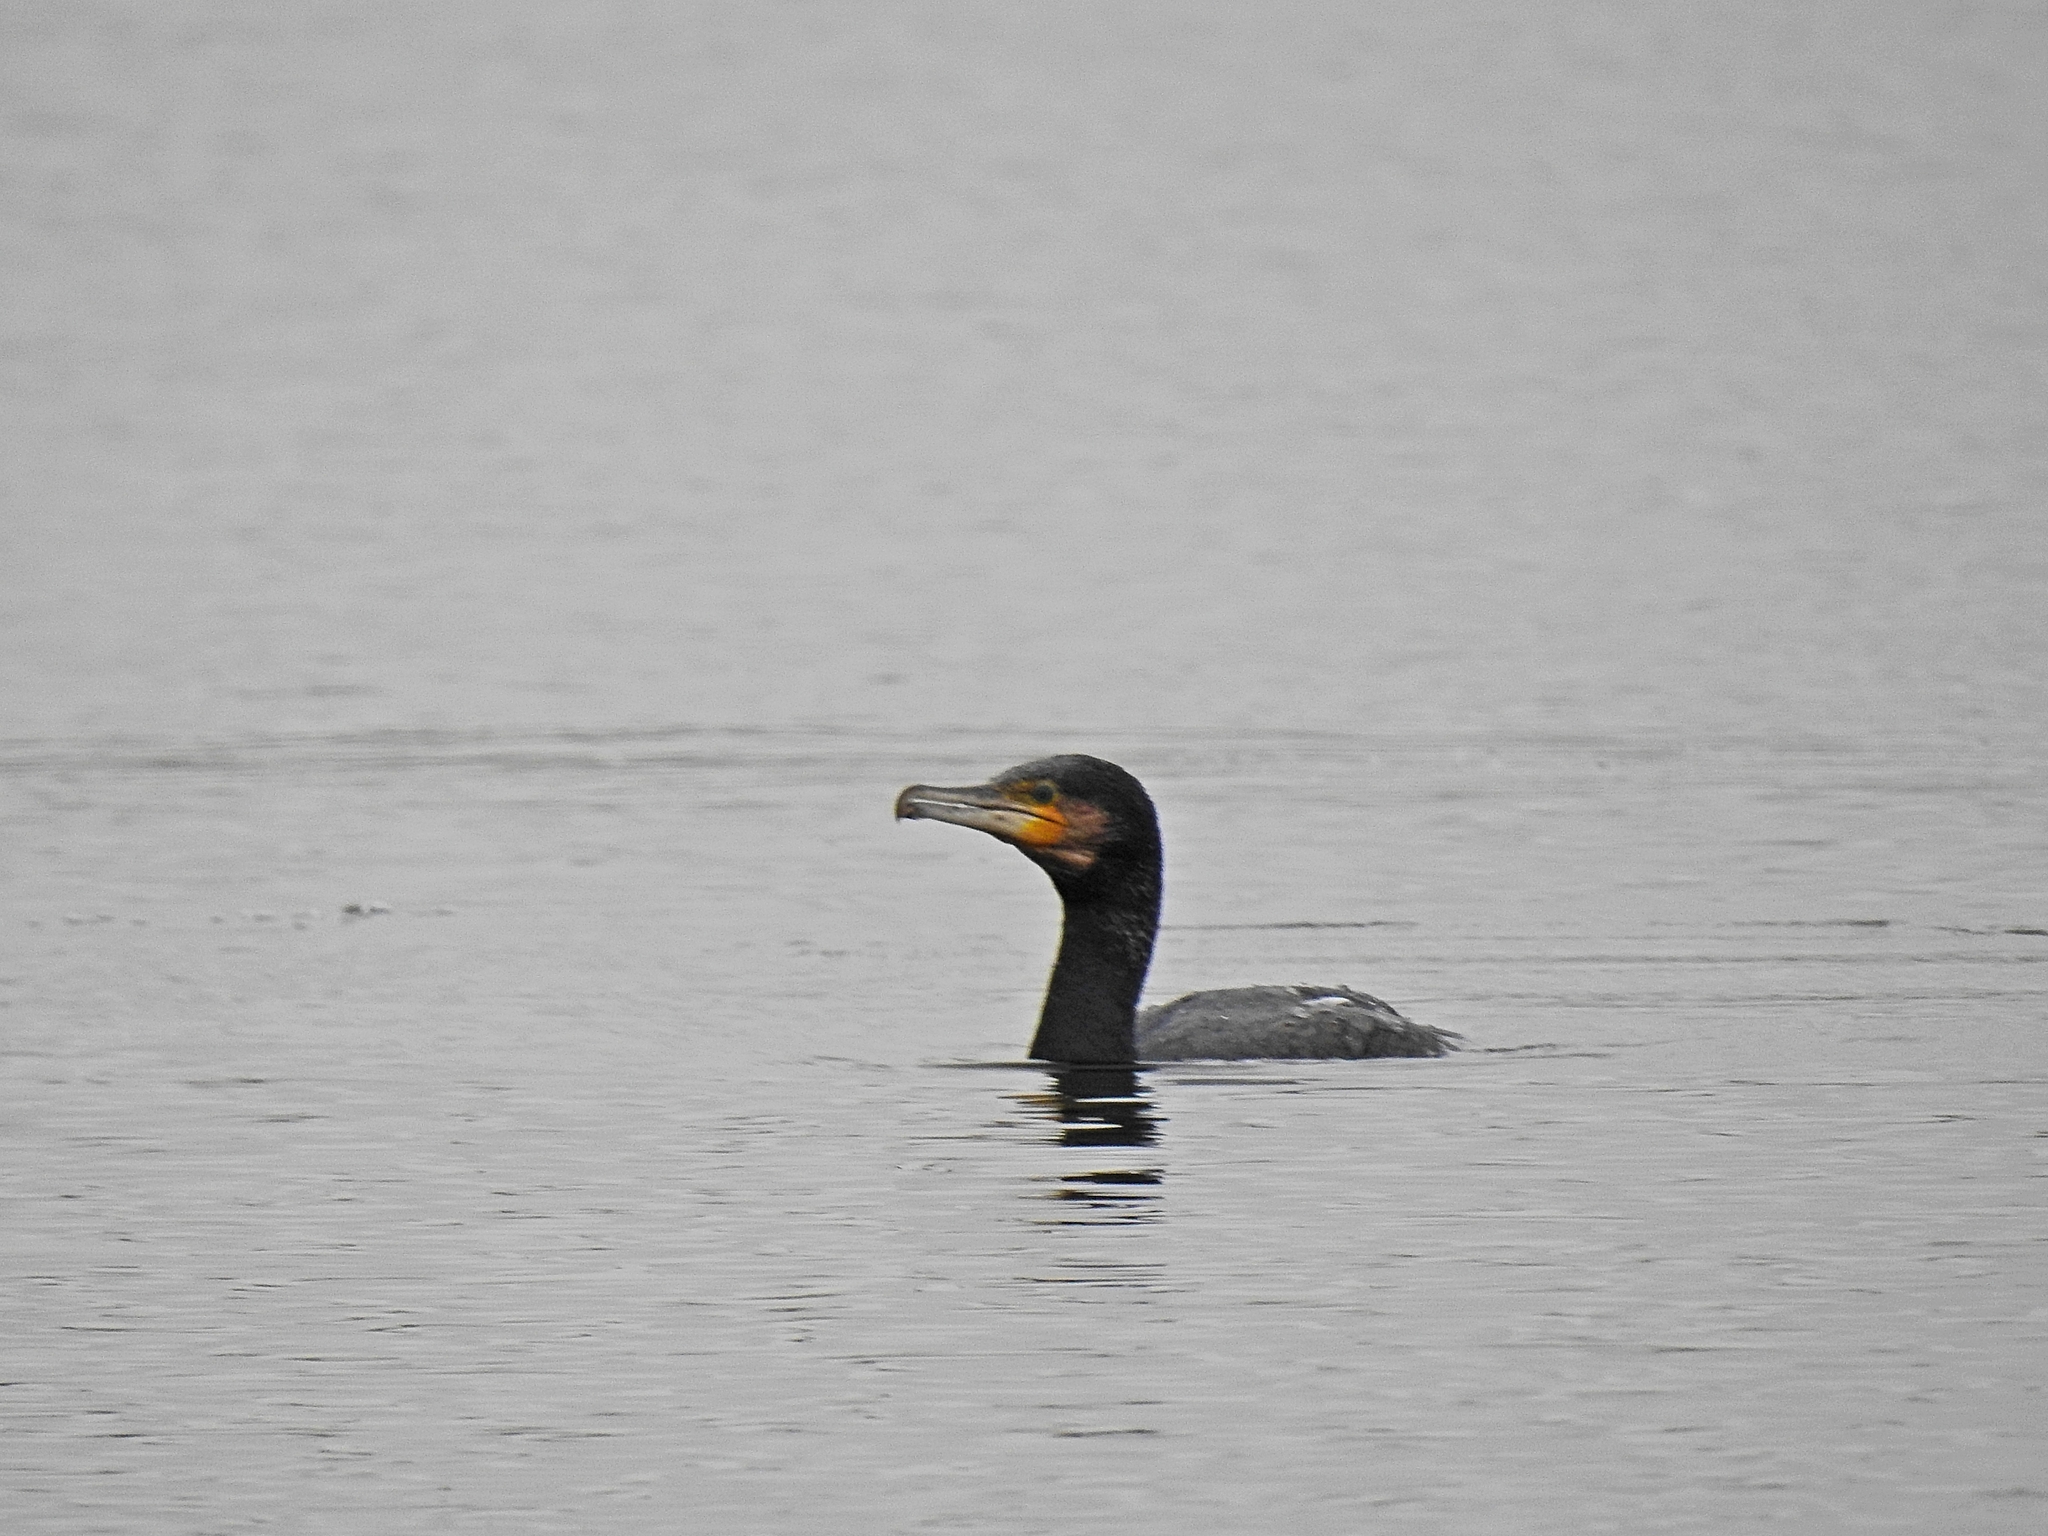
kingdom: Animalia
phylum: Chordata
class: Aves
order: Suliformes
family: Phalacrocoracidae
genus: Phalacrocorax
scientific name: Phalacrocorax carbo
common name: Great cormorant
